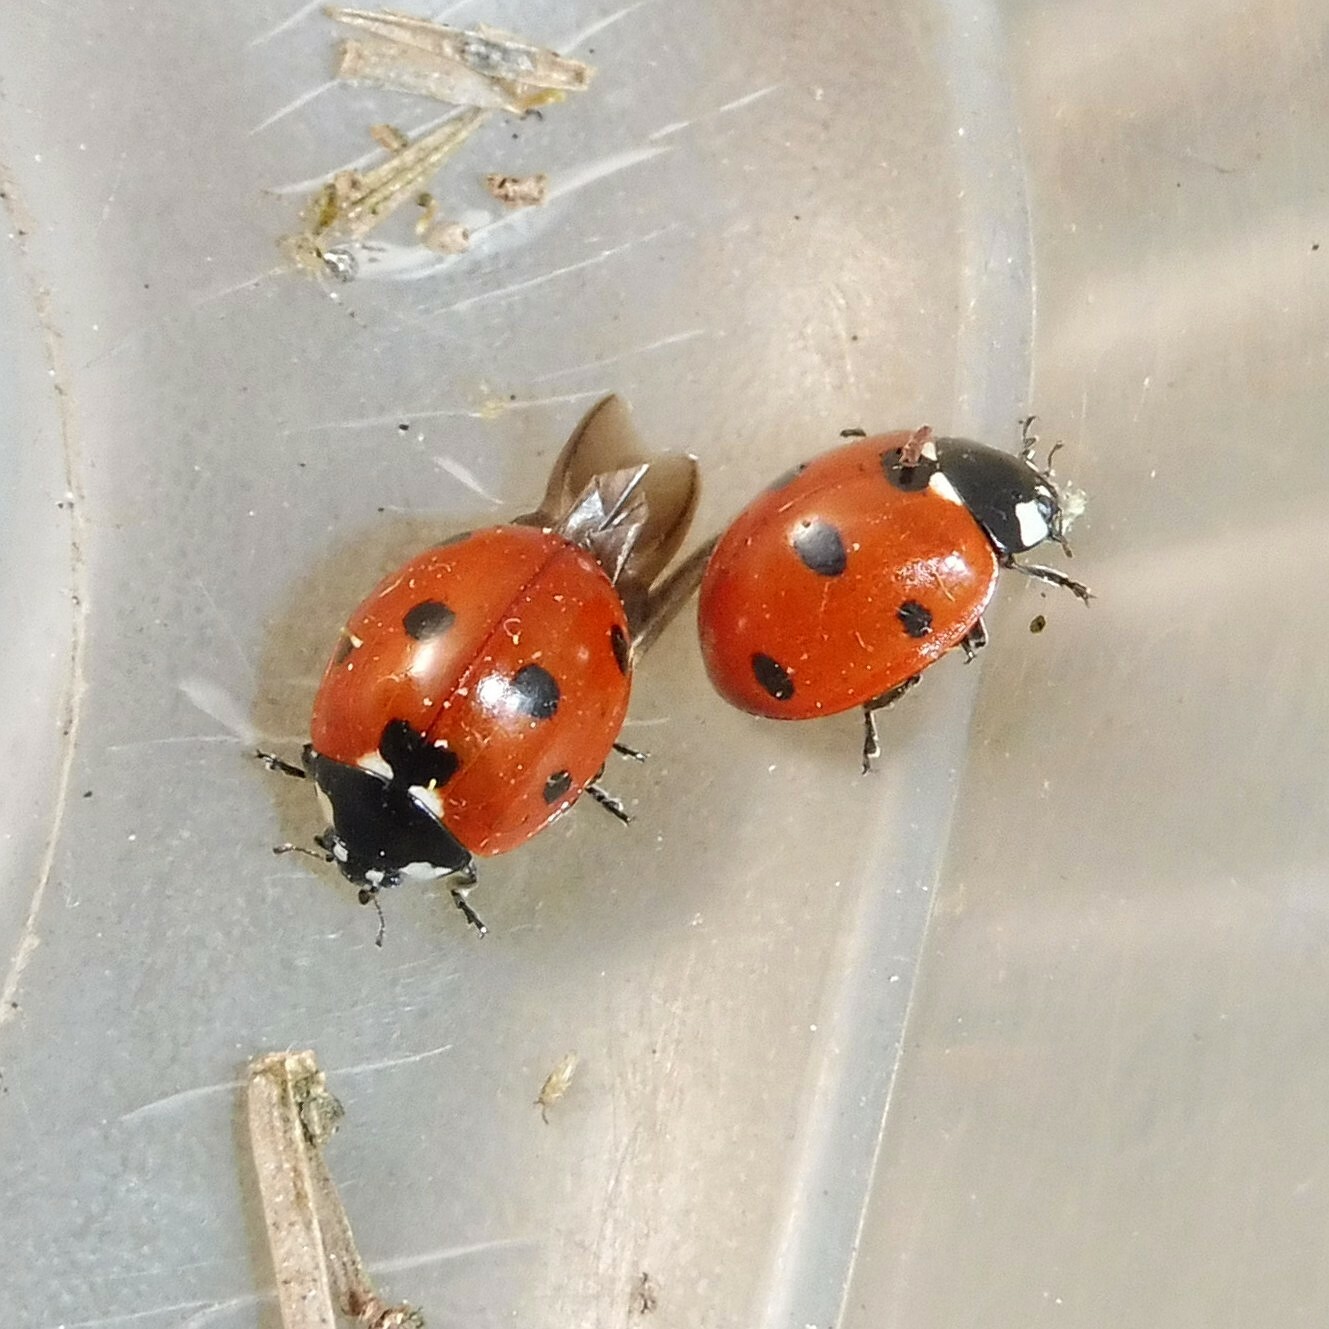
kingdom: Animalia
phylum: Arthropoda
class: Insecta
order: Coleoptera
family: Coccinellidae
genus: Coccinella
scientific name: Coccinella septempunctata
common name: Sevenspotted lady beetle
